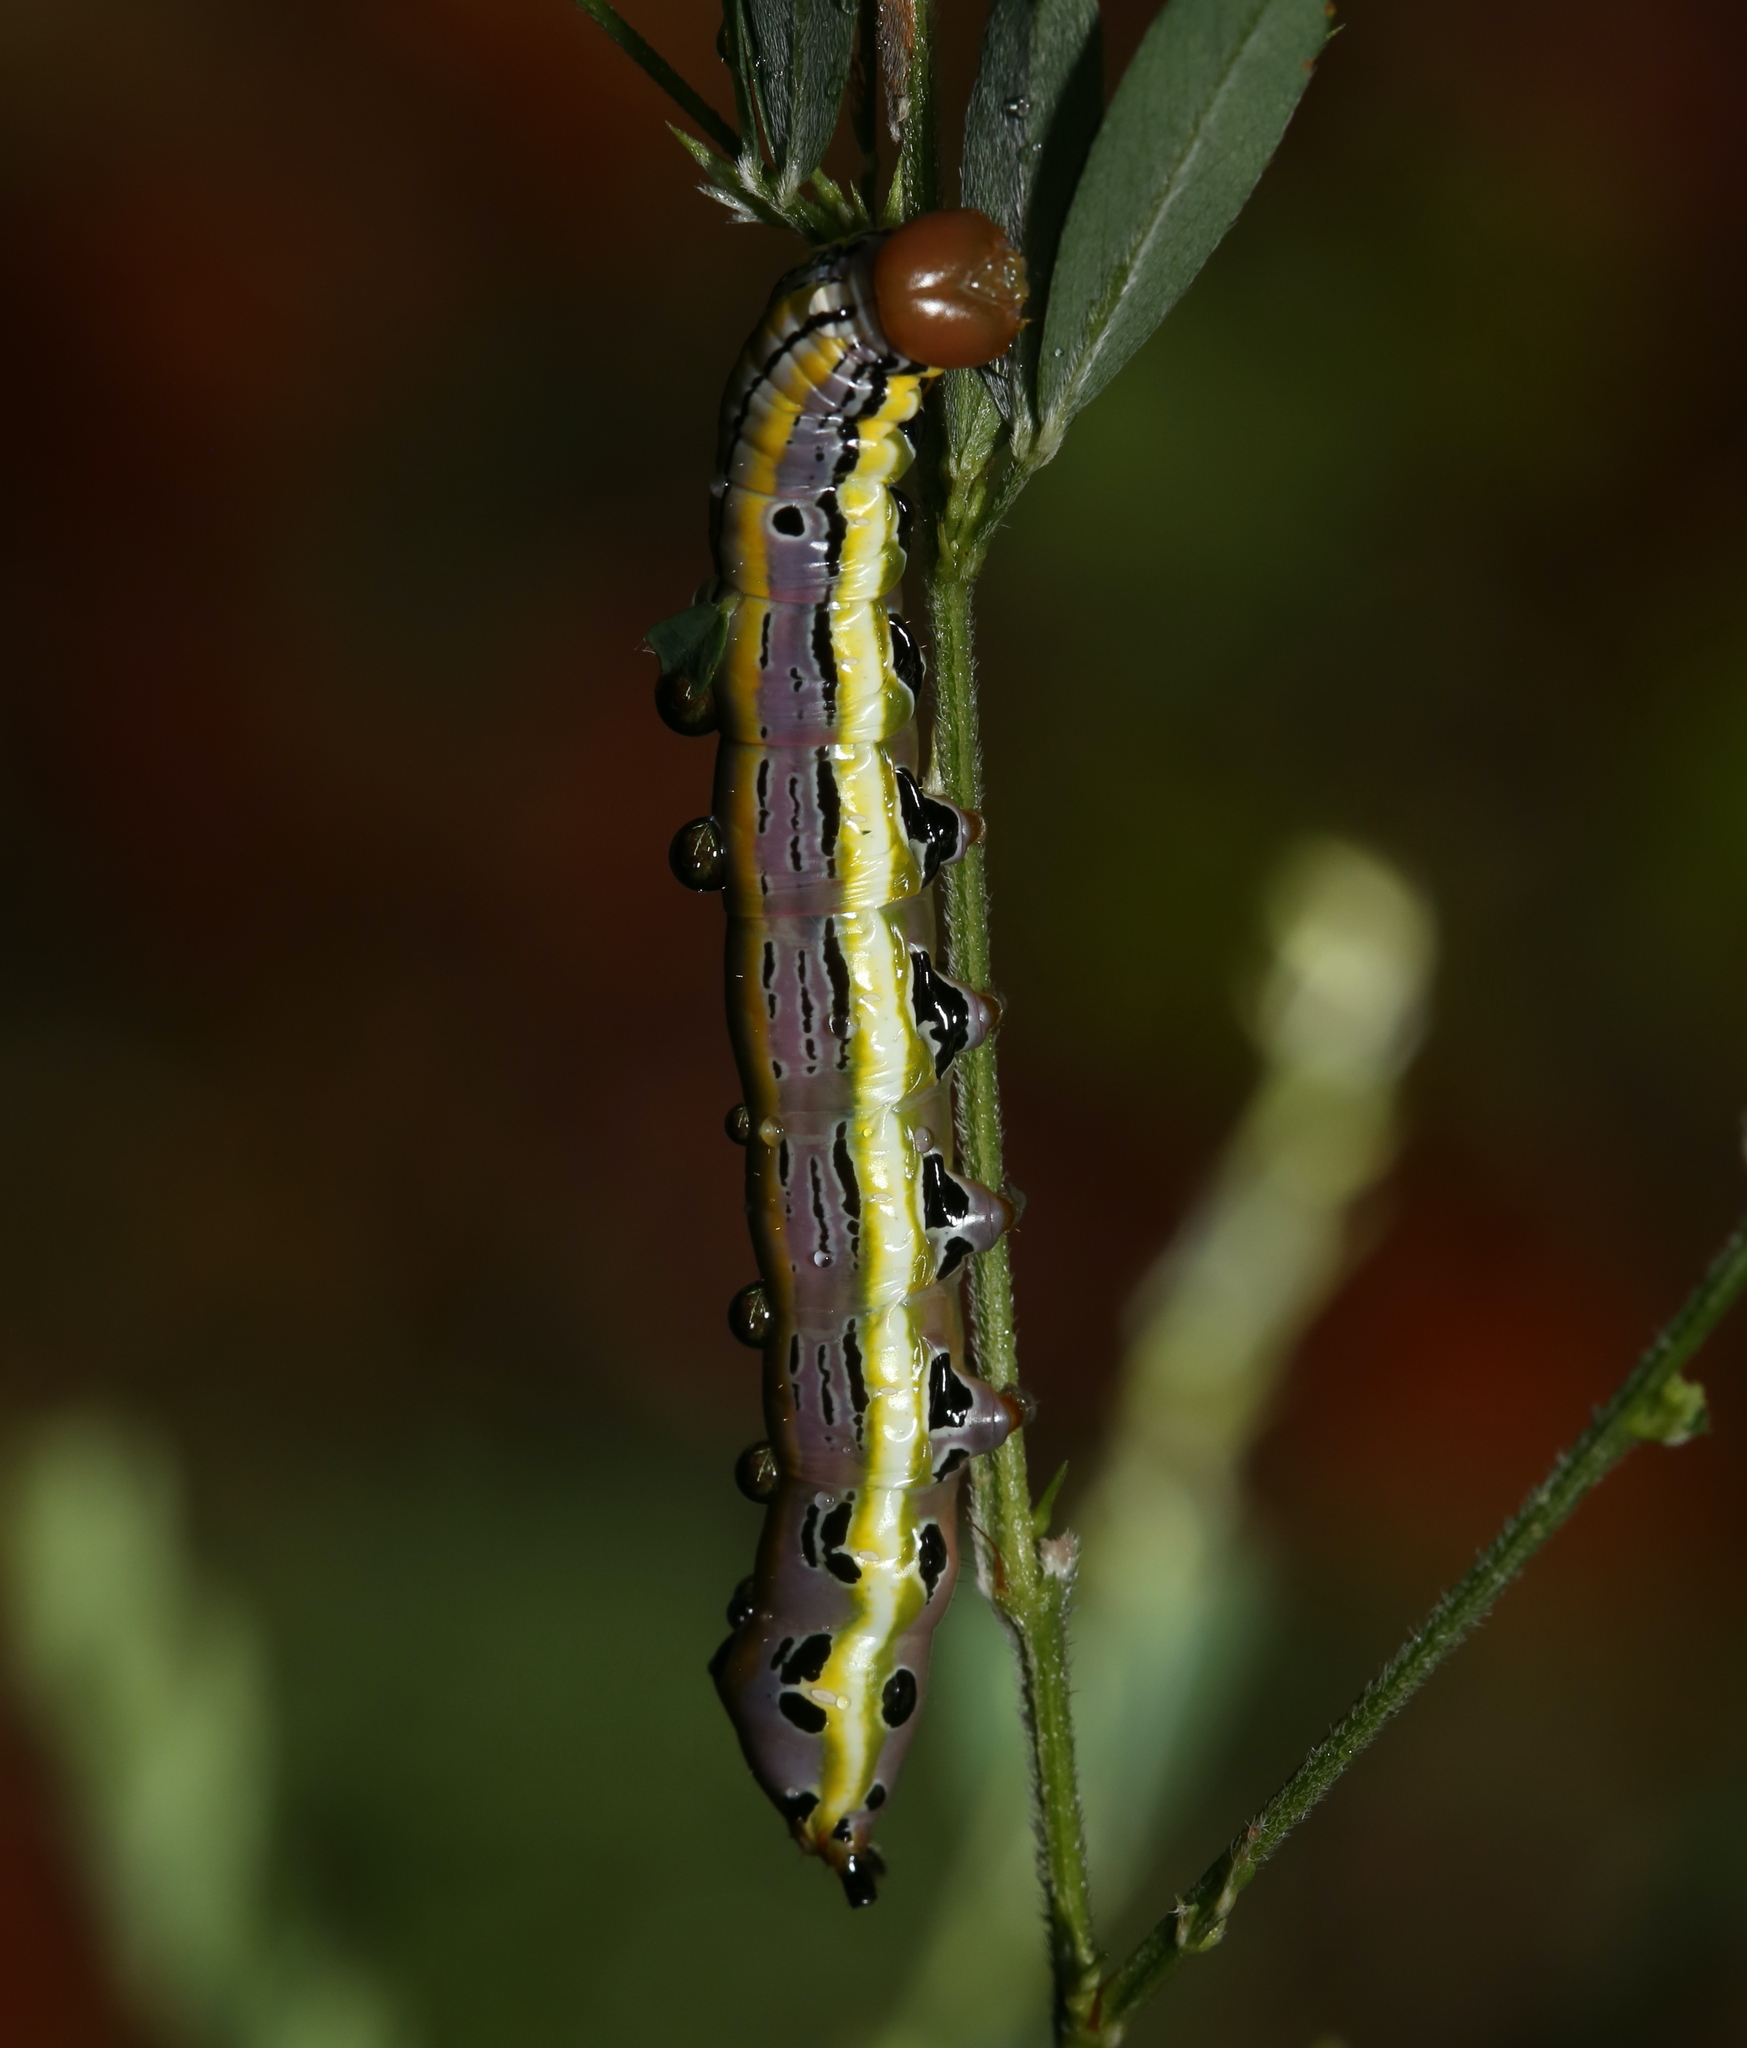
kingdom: Animalia
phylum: Arthropoda
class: Insecta
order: Lepidoptera
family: Notodontidae
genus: Dasylophia
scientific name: Dasylophia anguina
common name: Black-spotted prominent
